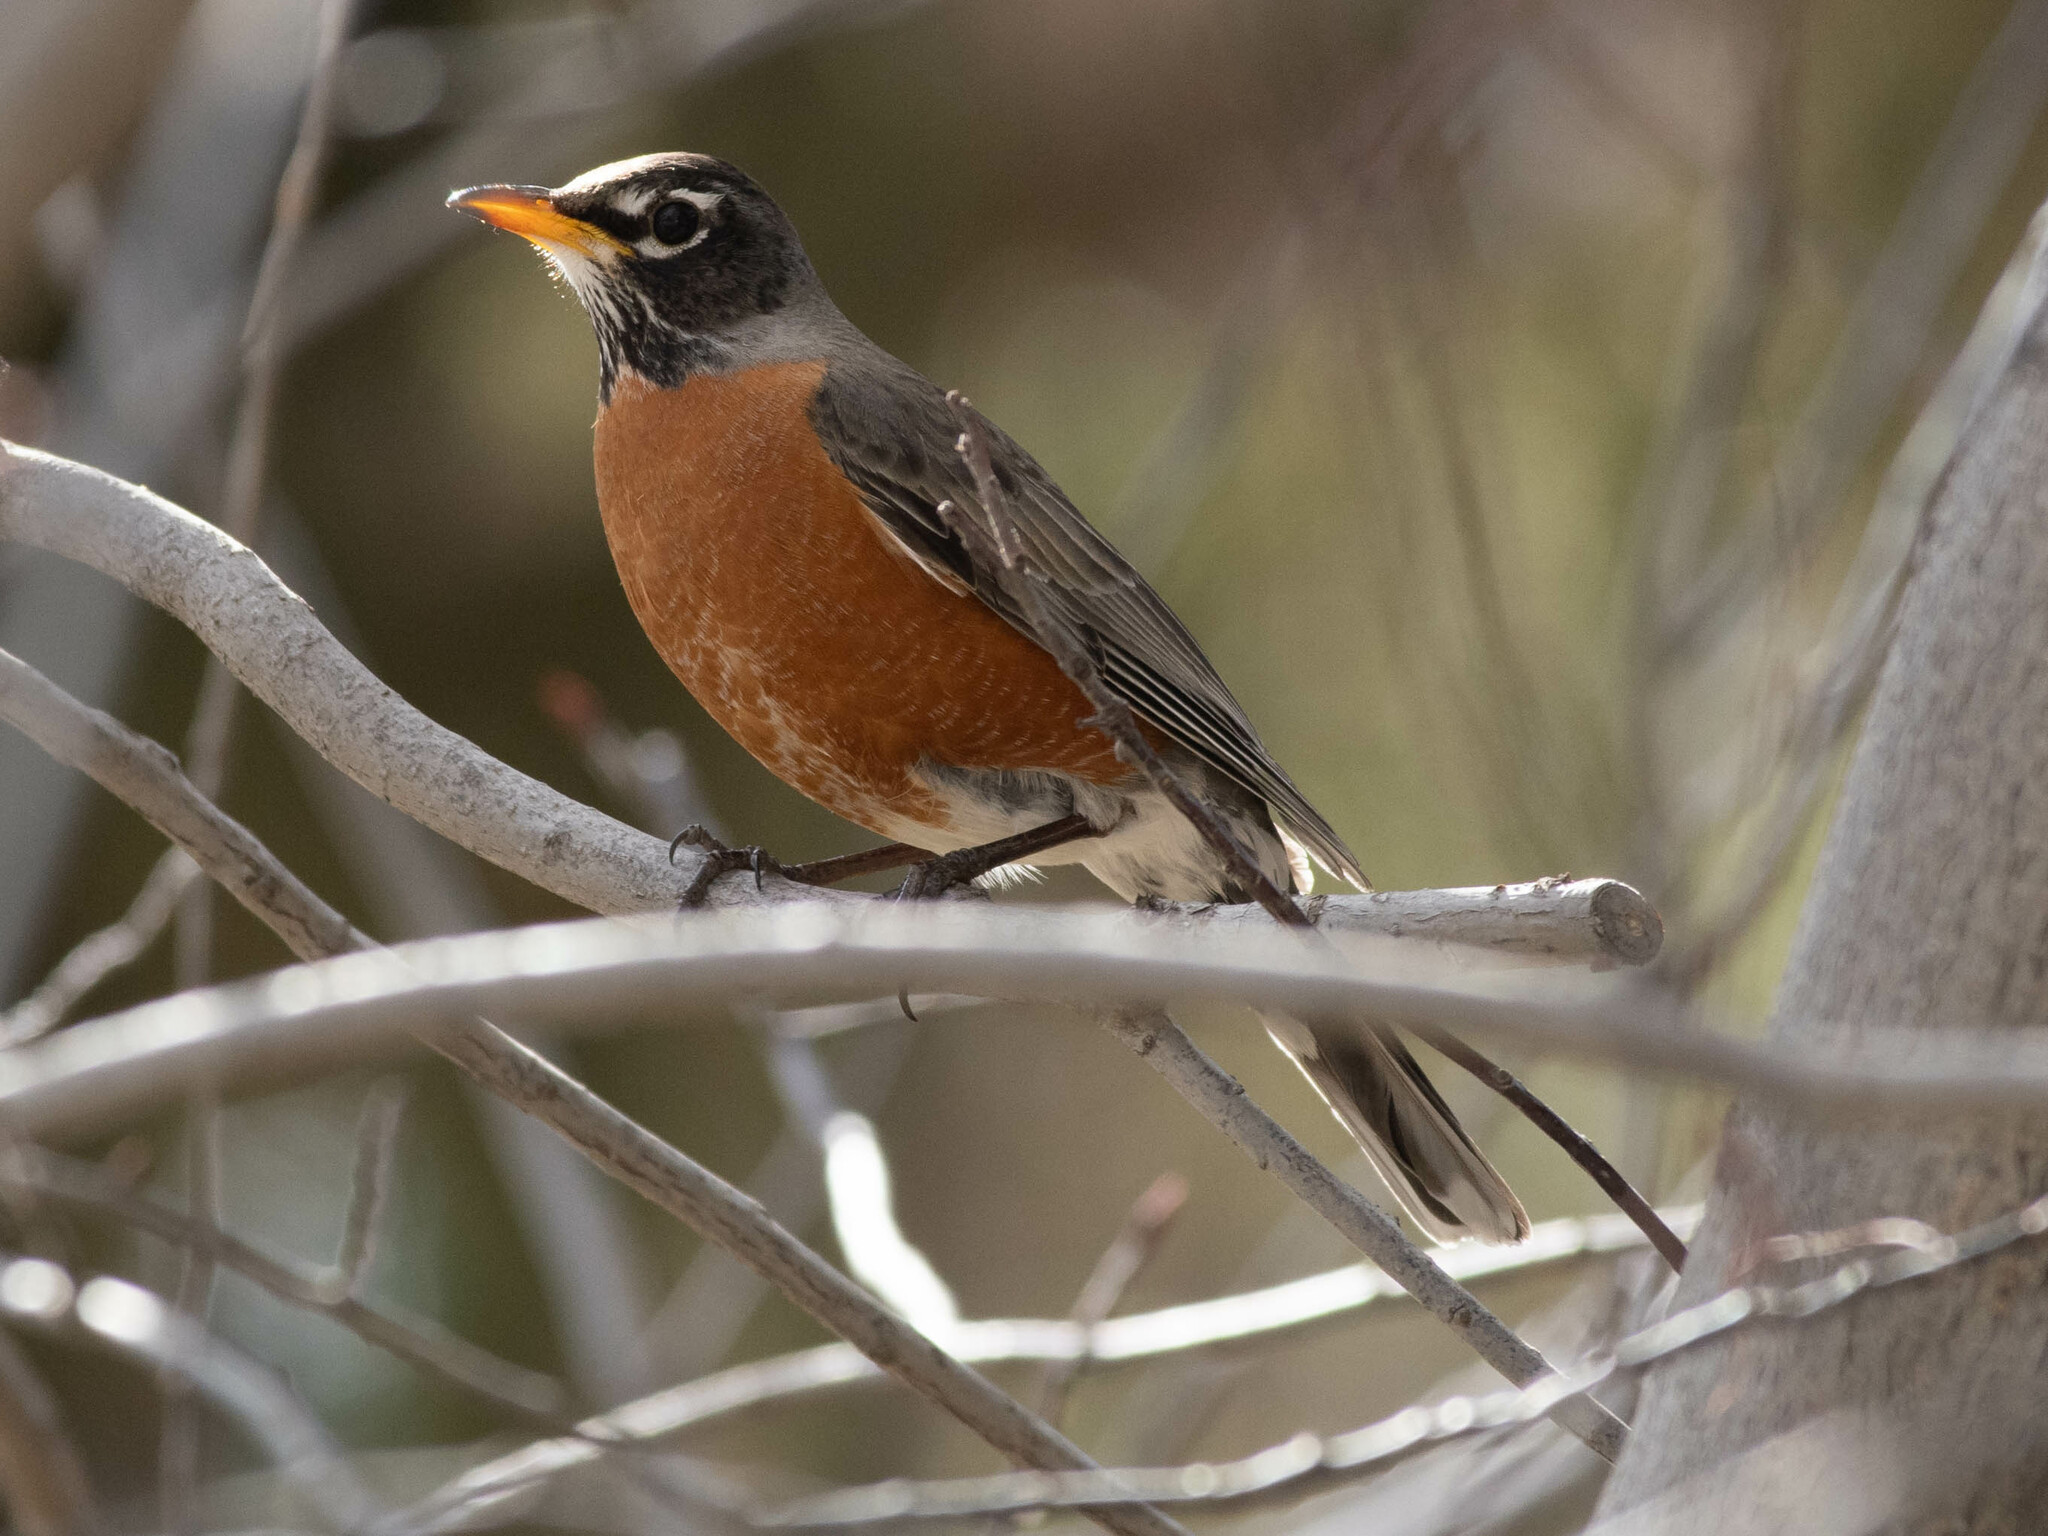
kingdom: Animalia
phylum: Chordata
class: Aves
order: Passeriformes
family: Turdidae
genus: Turdus
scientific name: Turdus migratorius
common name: American robin
